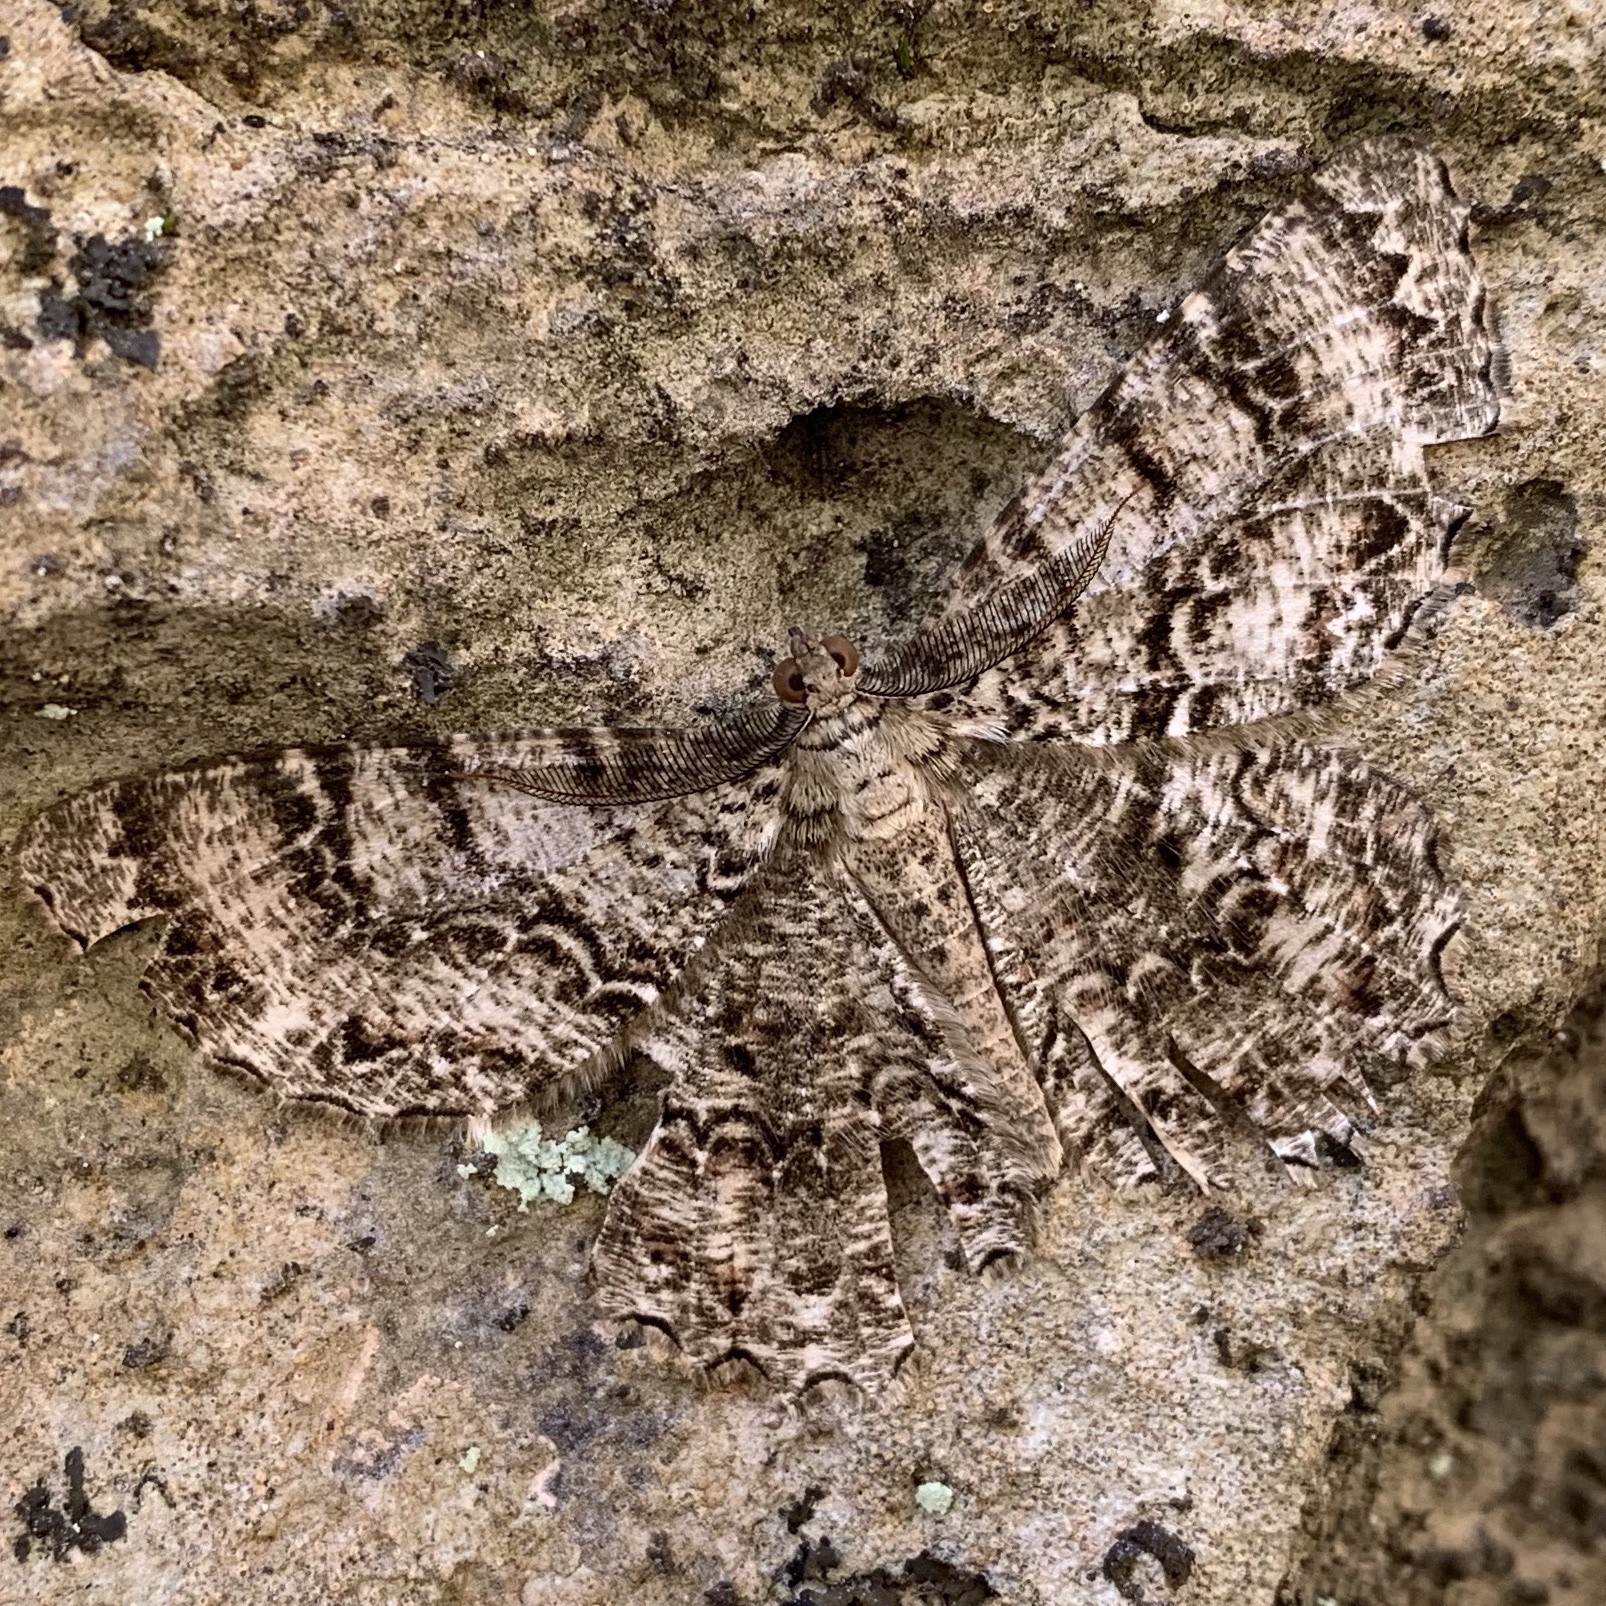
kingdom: Animalia
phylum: Arthropoda
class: Insecta
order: Lepidoptera
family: Geometridae
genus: Epimecis
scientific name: Epimecis hortaria
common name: Tulip-tree beauty
